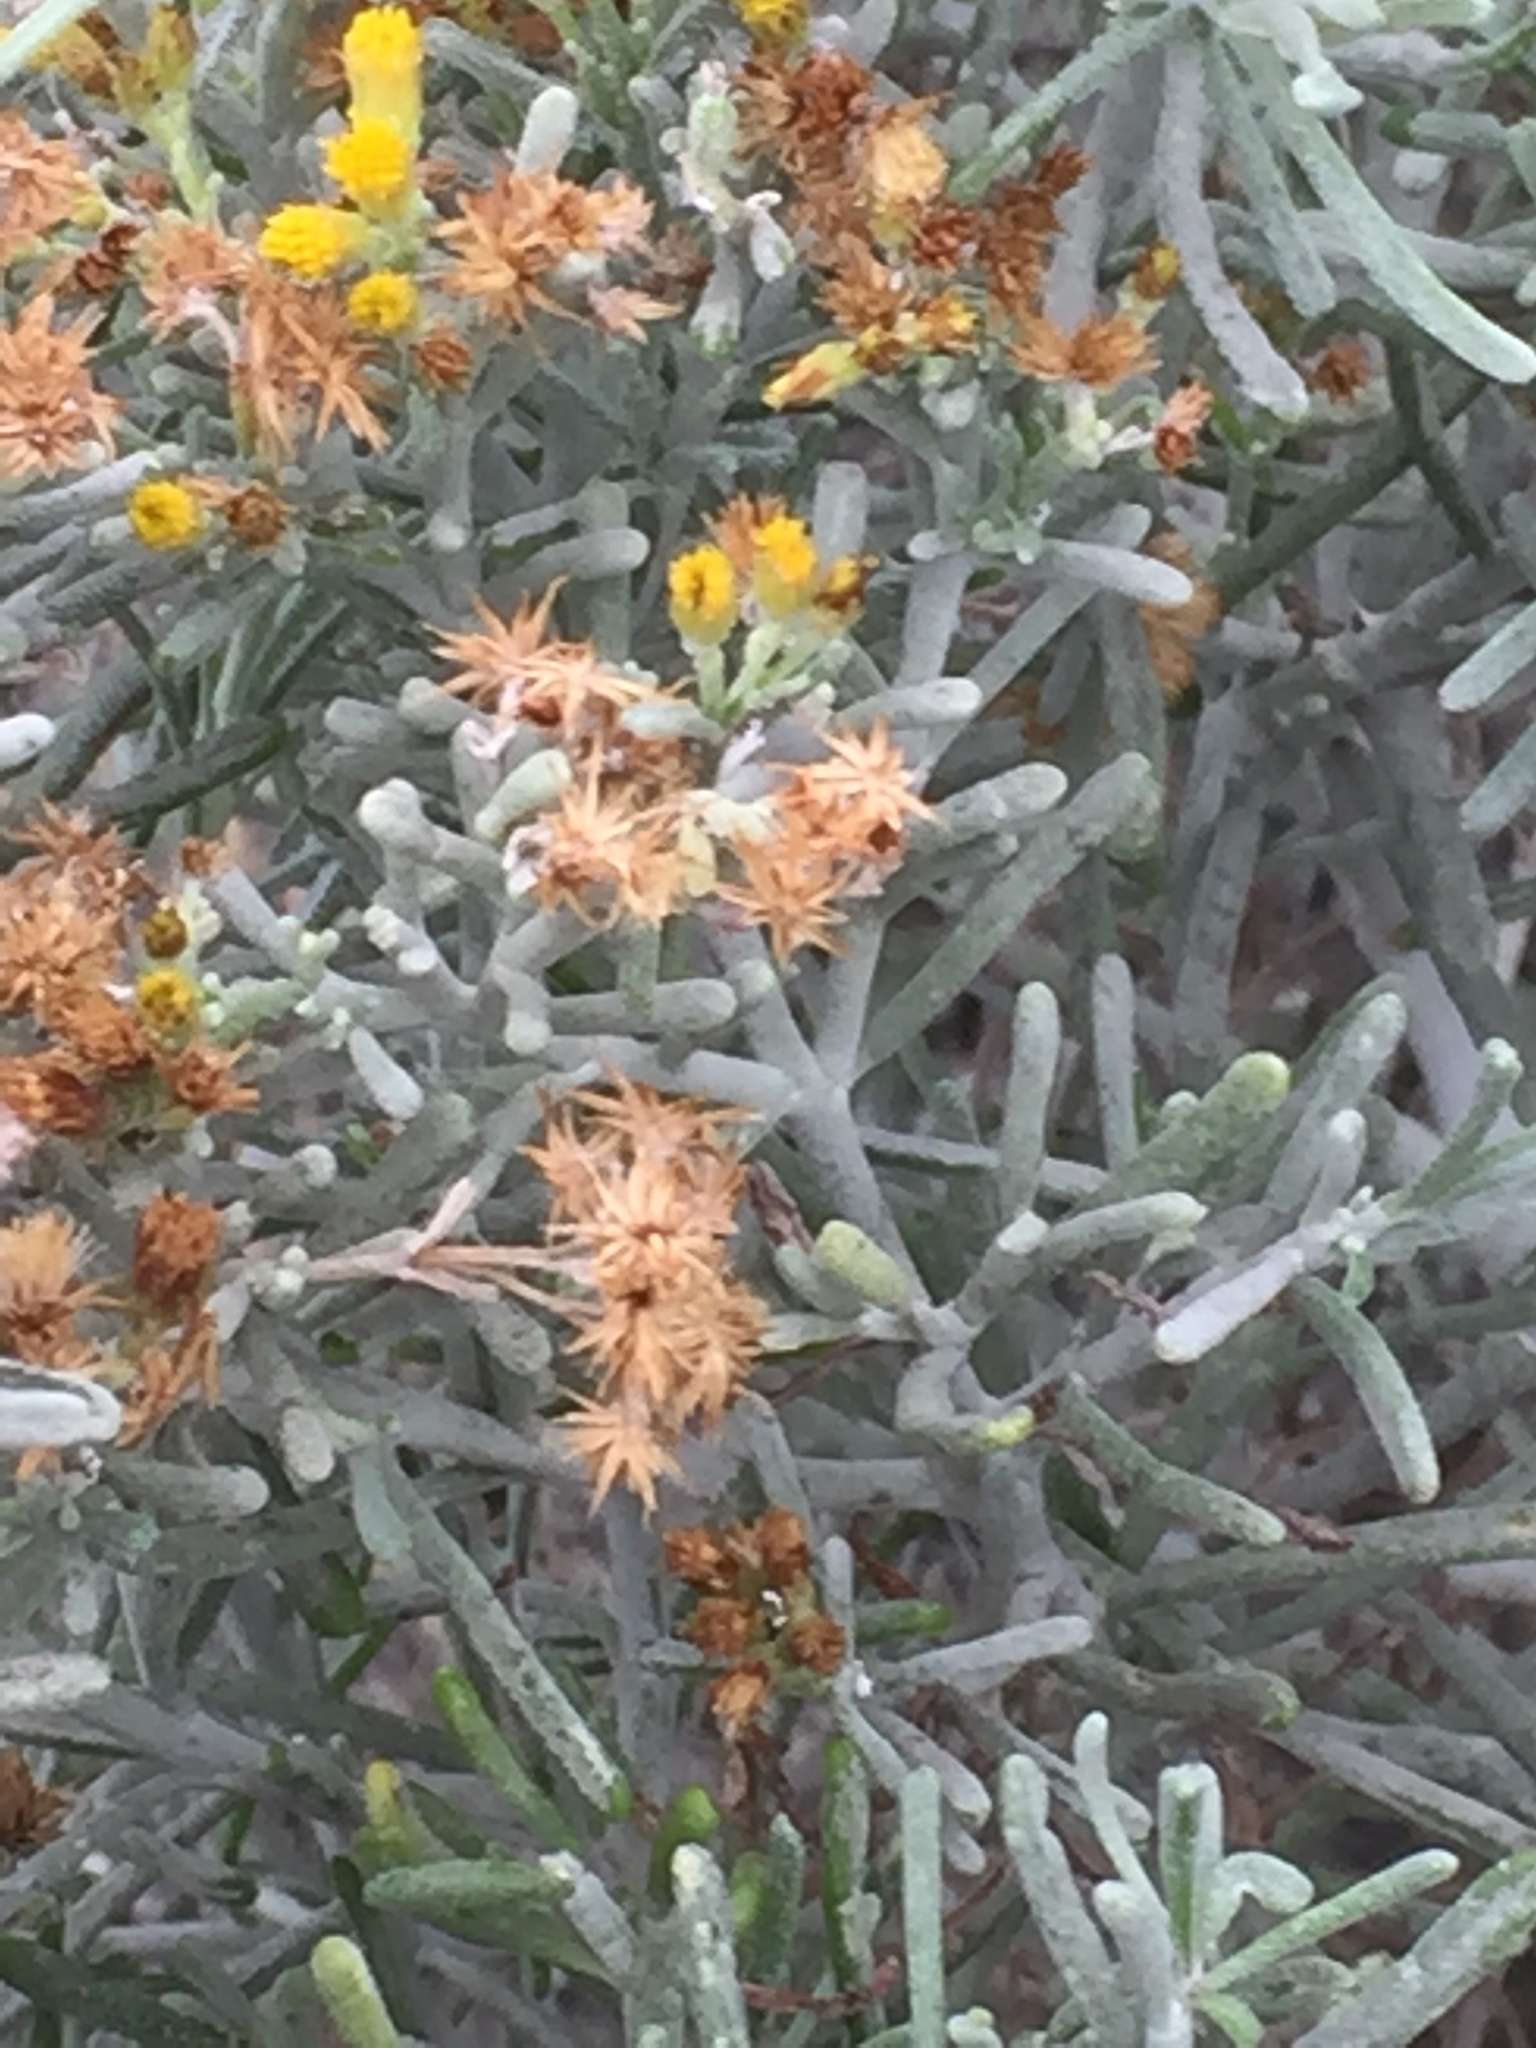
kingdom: Plantae
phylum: Tracheophyta
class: Magnoliopsida
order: Asterales
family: Asteraceae
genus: Schizogyne
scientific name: Schizogyne sericea
